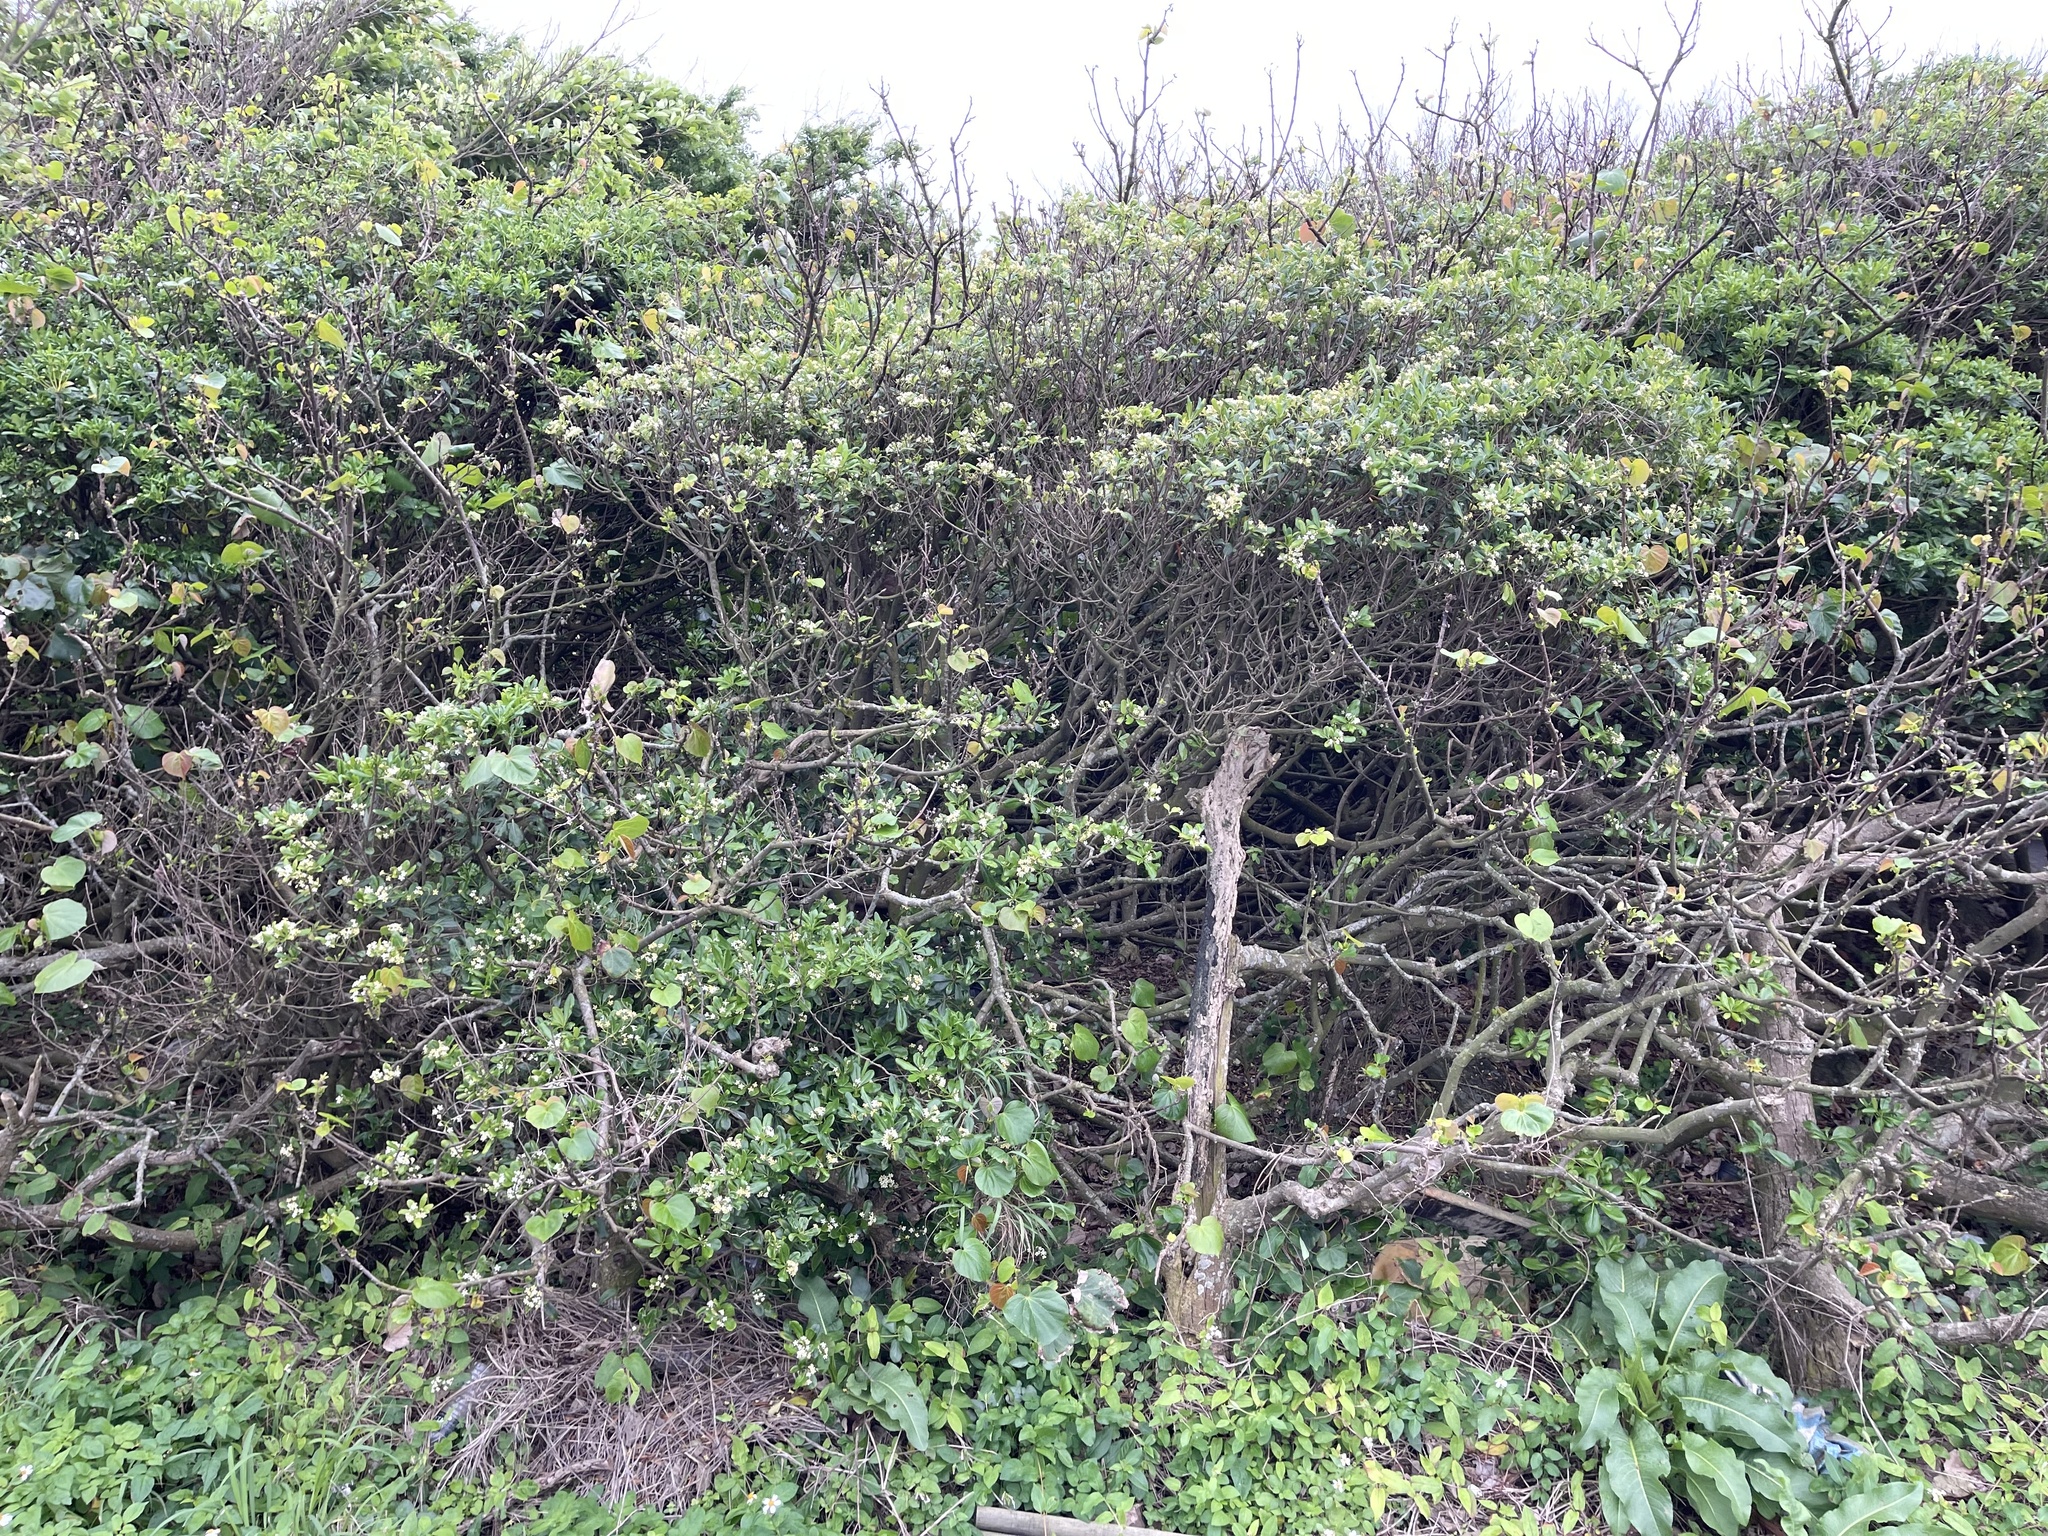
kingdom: Plantae
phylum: Tracheophyta
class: Magnoliopsida
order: Apiales
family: Pittosporaceae
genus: Pittosporum
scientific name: Pittosporum tobira
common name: Japanese cheesewood
